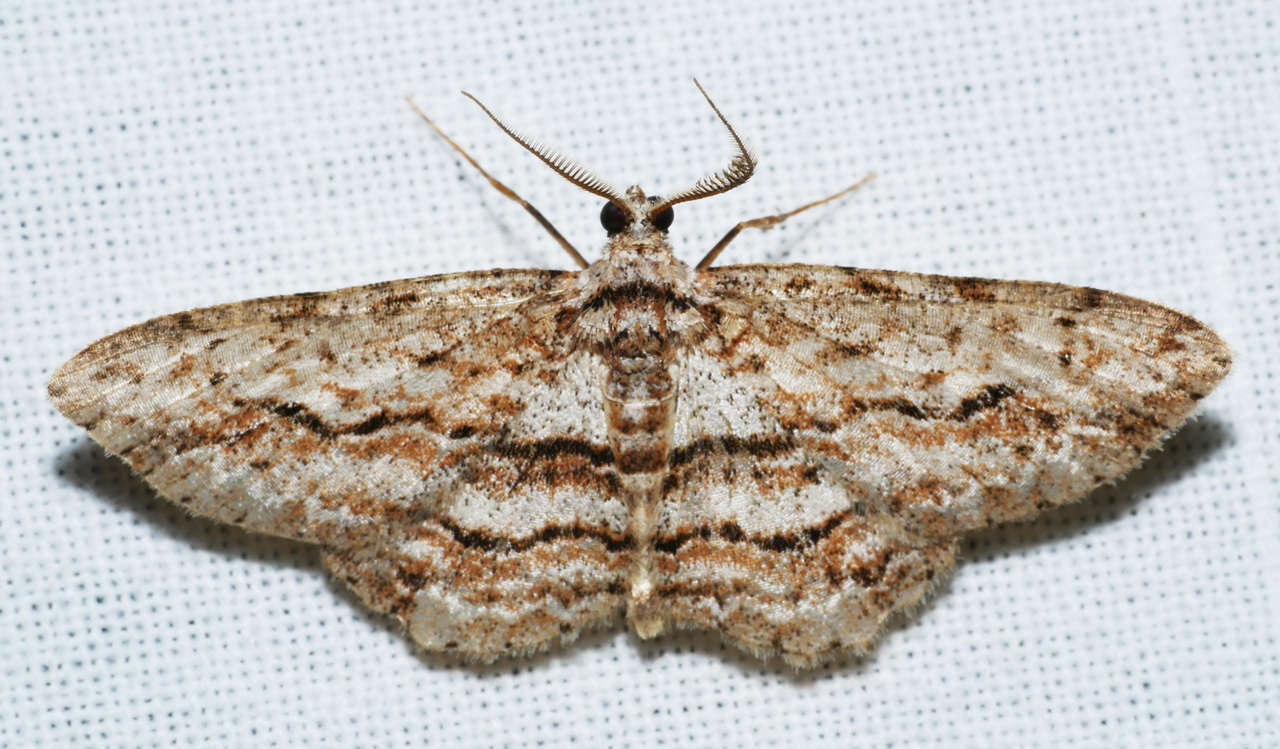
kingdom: Animalia
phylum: Arthropoda
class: Insecta
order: Lepidoptera
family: Geometridae
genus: Didymoctenia
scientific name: Didymoctenia exsuperata
